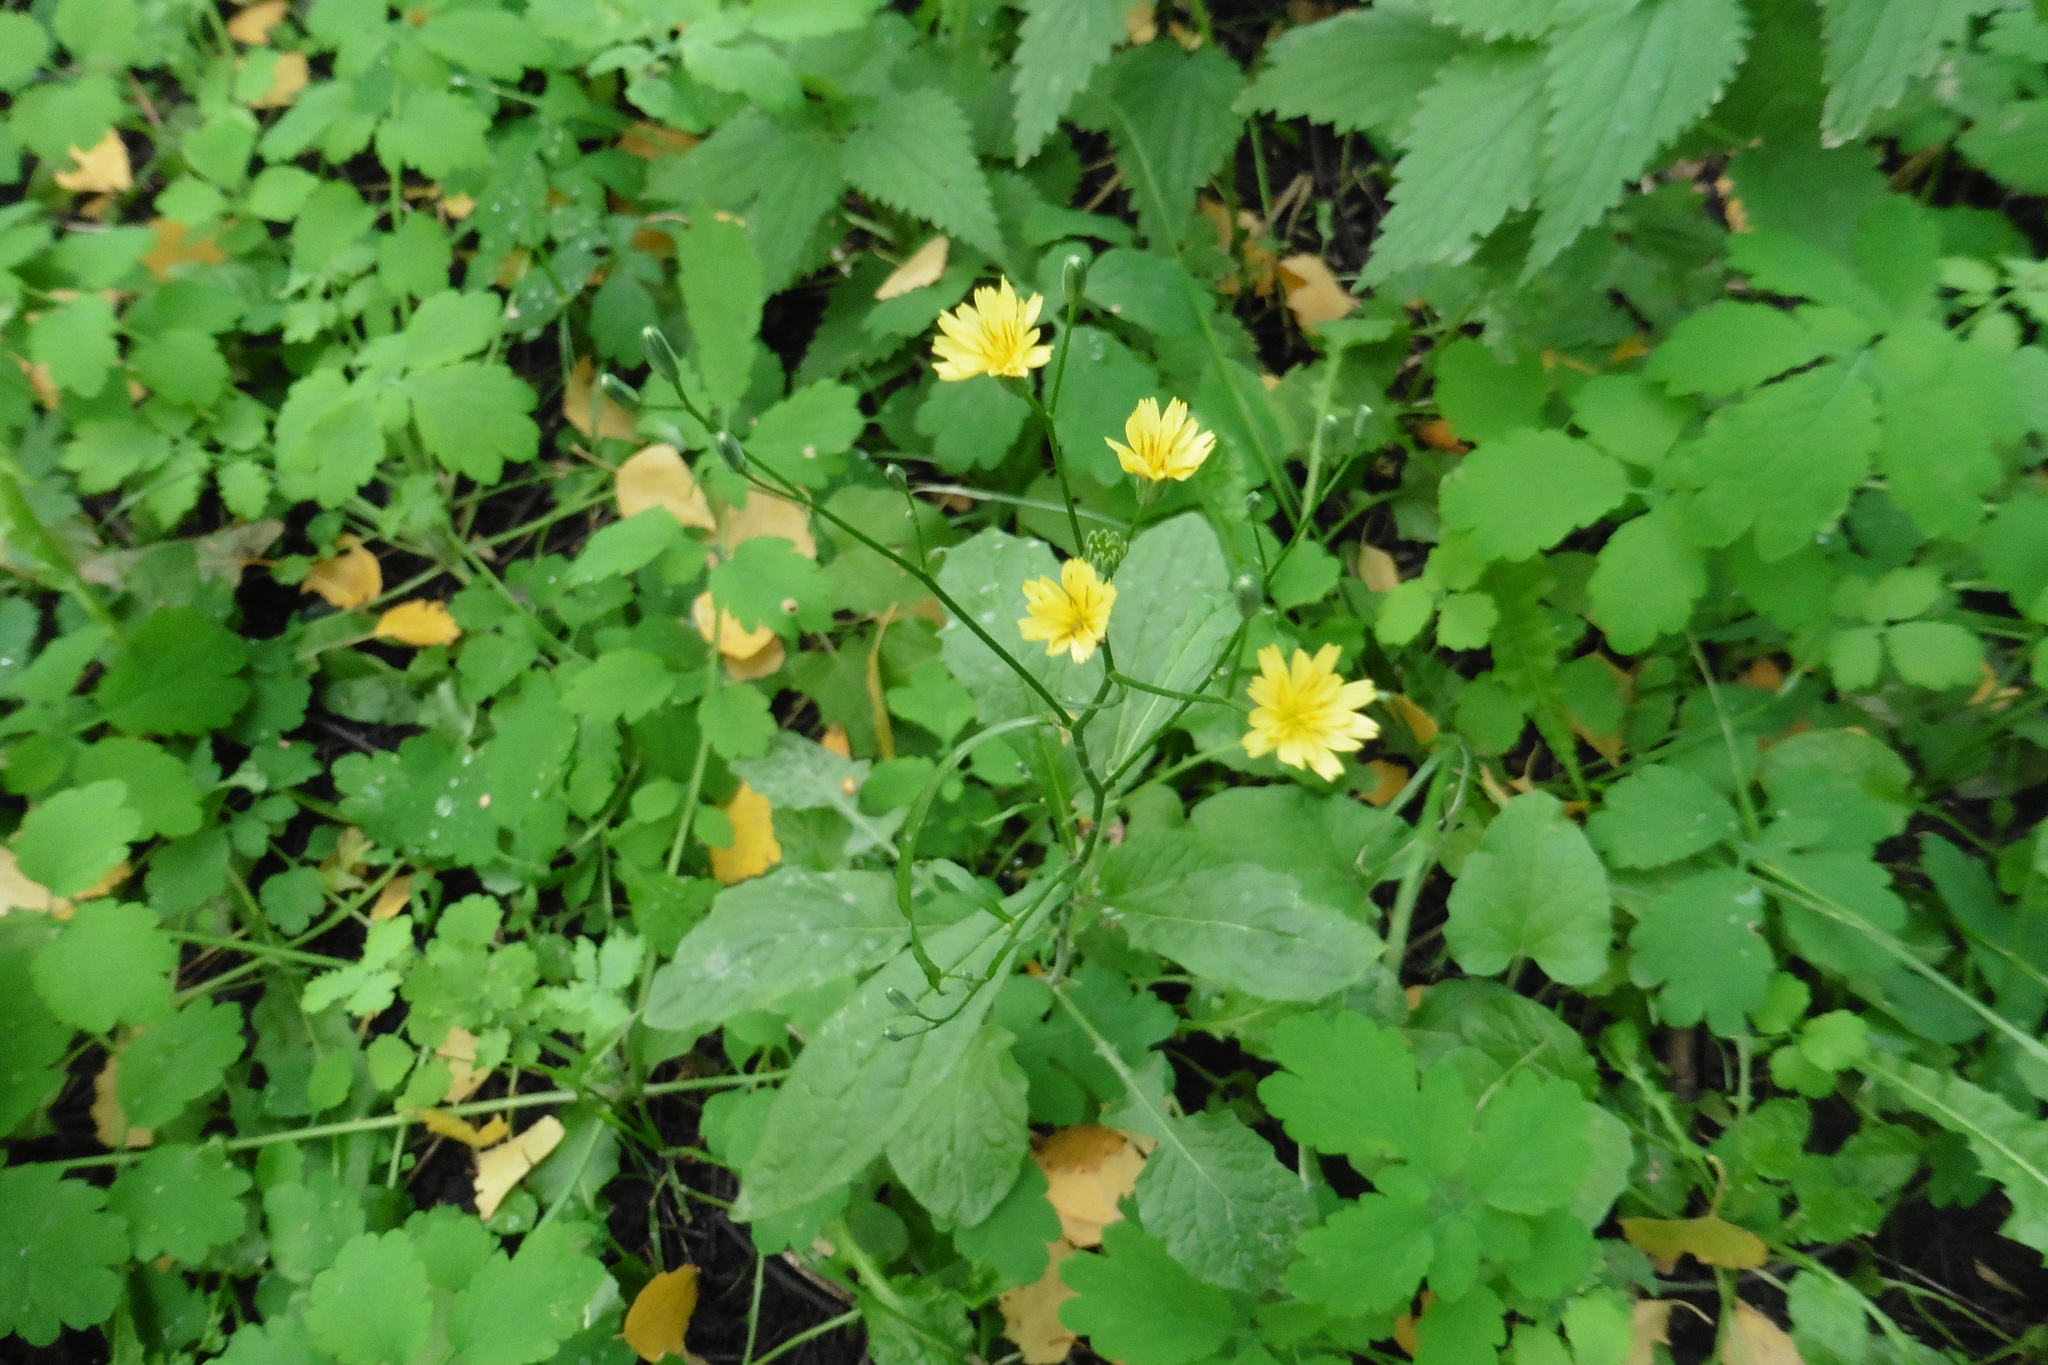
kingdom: Plantae
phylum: Tracheophyta
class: Magnoliopsida
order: Asterales
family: Asteraceae
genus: Lapsana
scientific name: Lapsana communis
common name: Nipplewort
